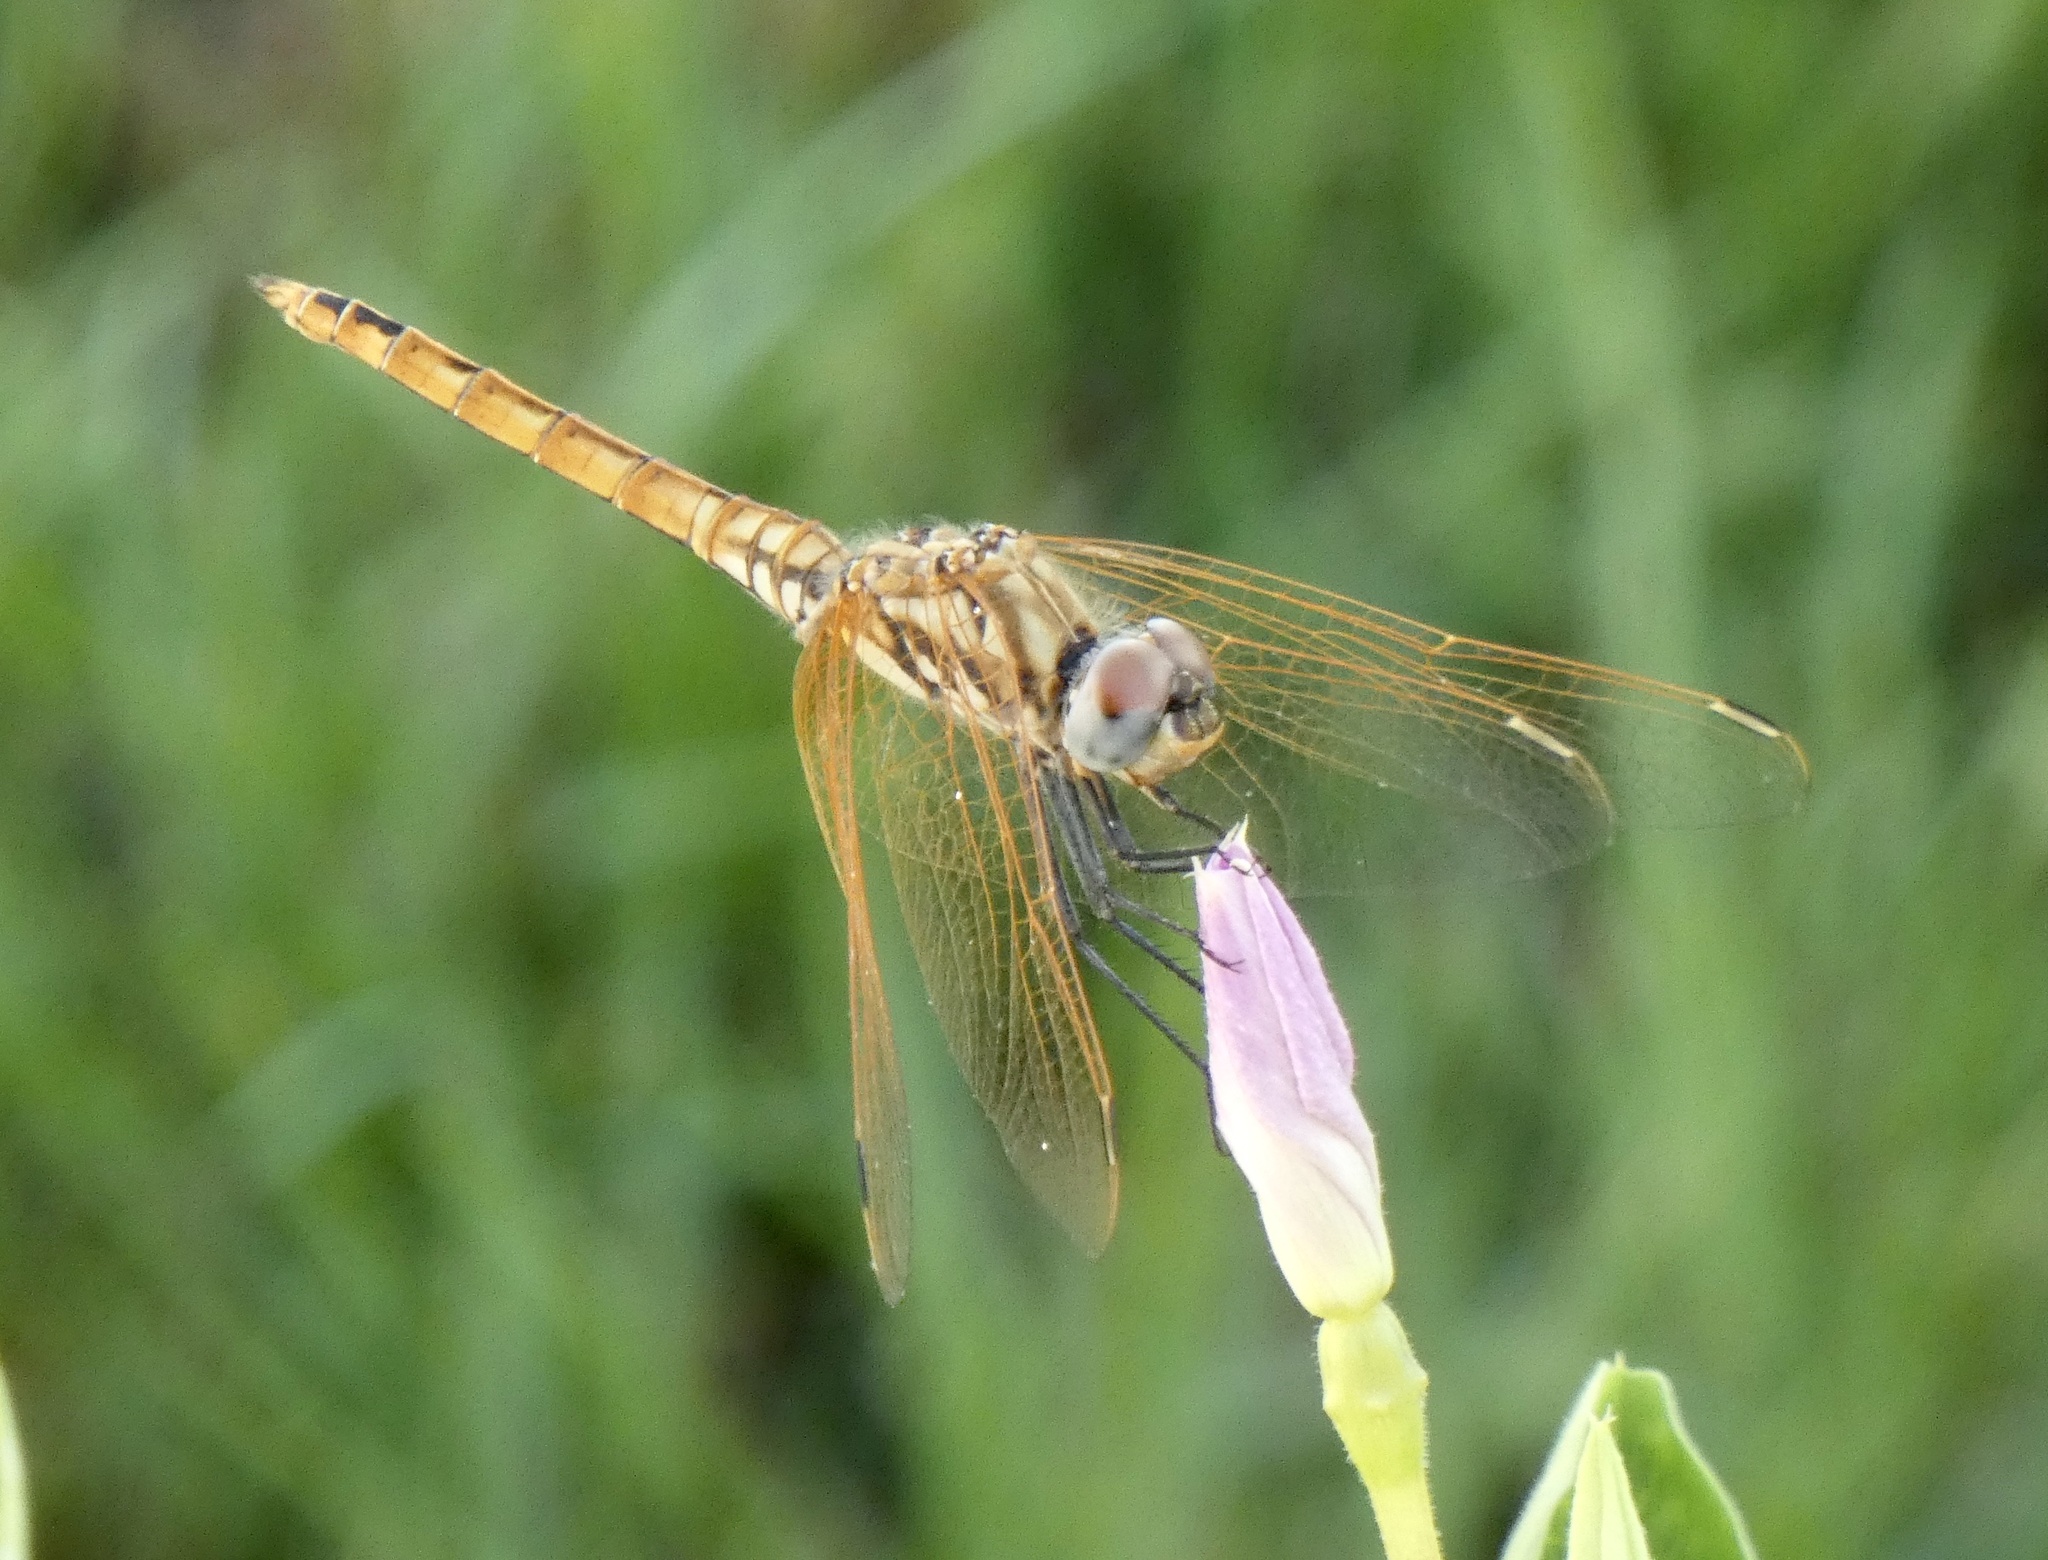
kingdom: Animalia
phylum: Arthropoda
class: Insecta
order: Odonata
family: Libellulidae
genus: Trithemis
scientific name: Trithemis annulata
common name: Violet dropwing
